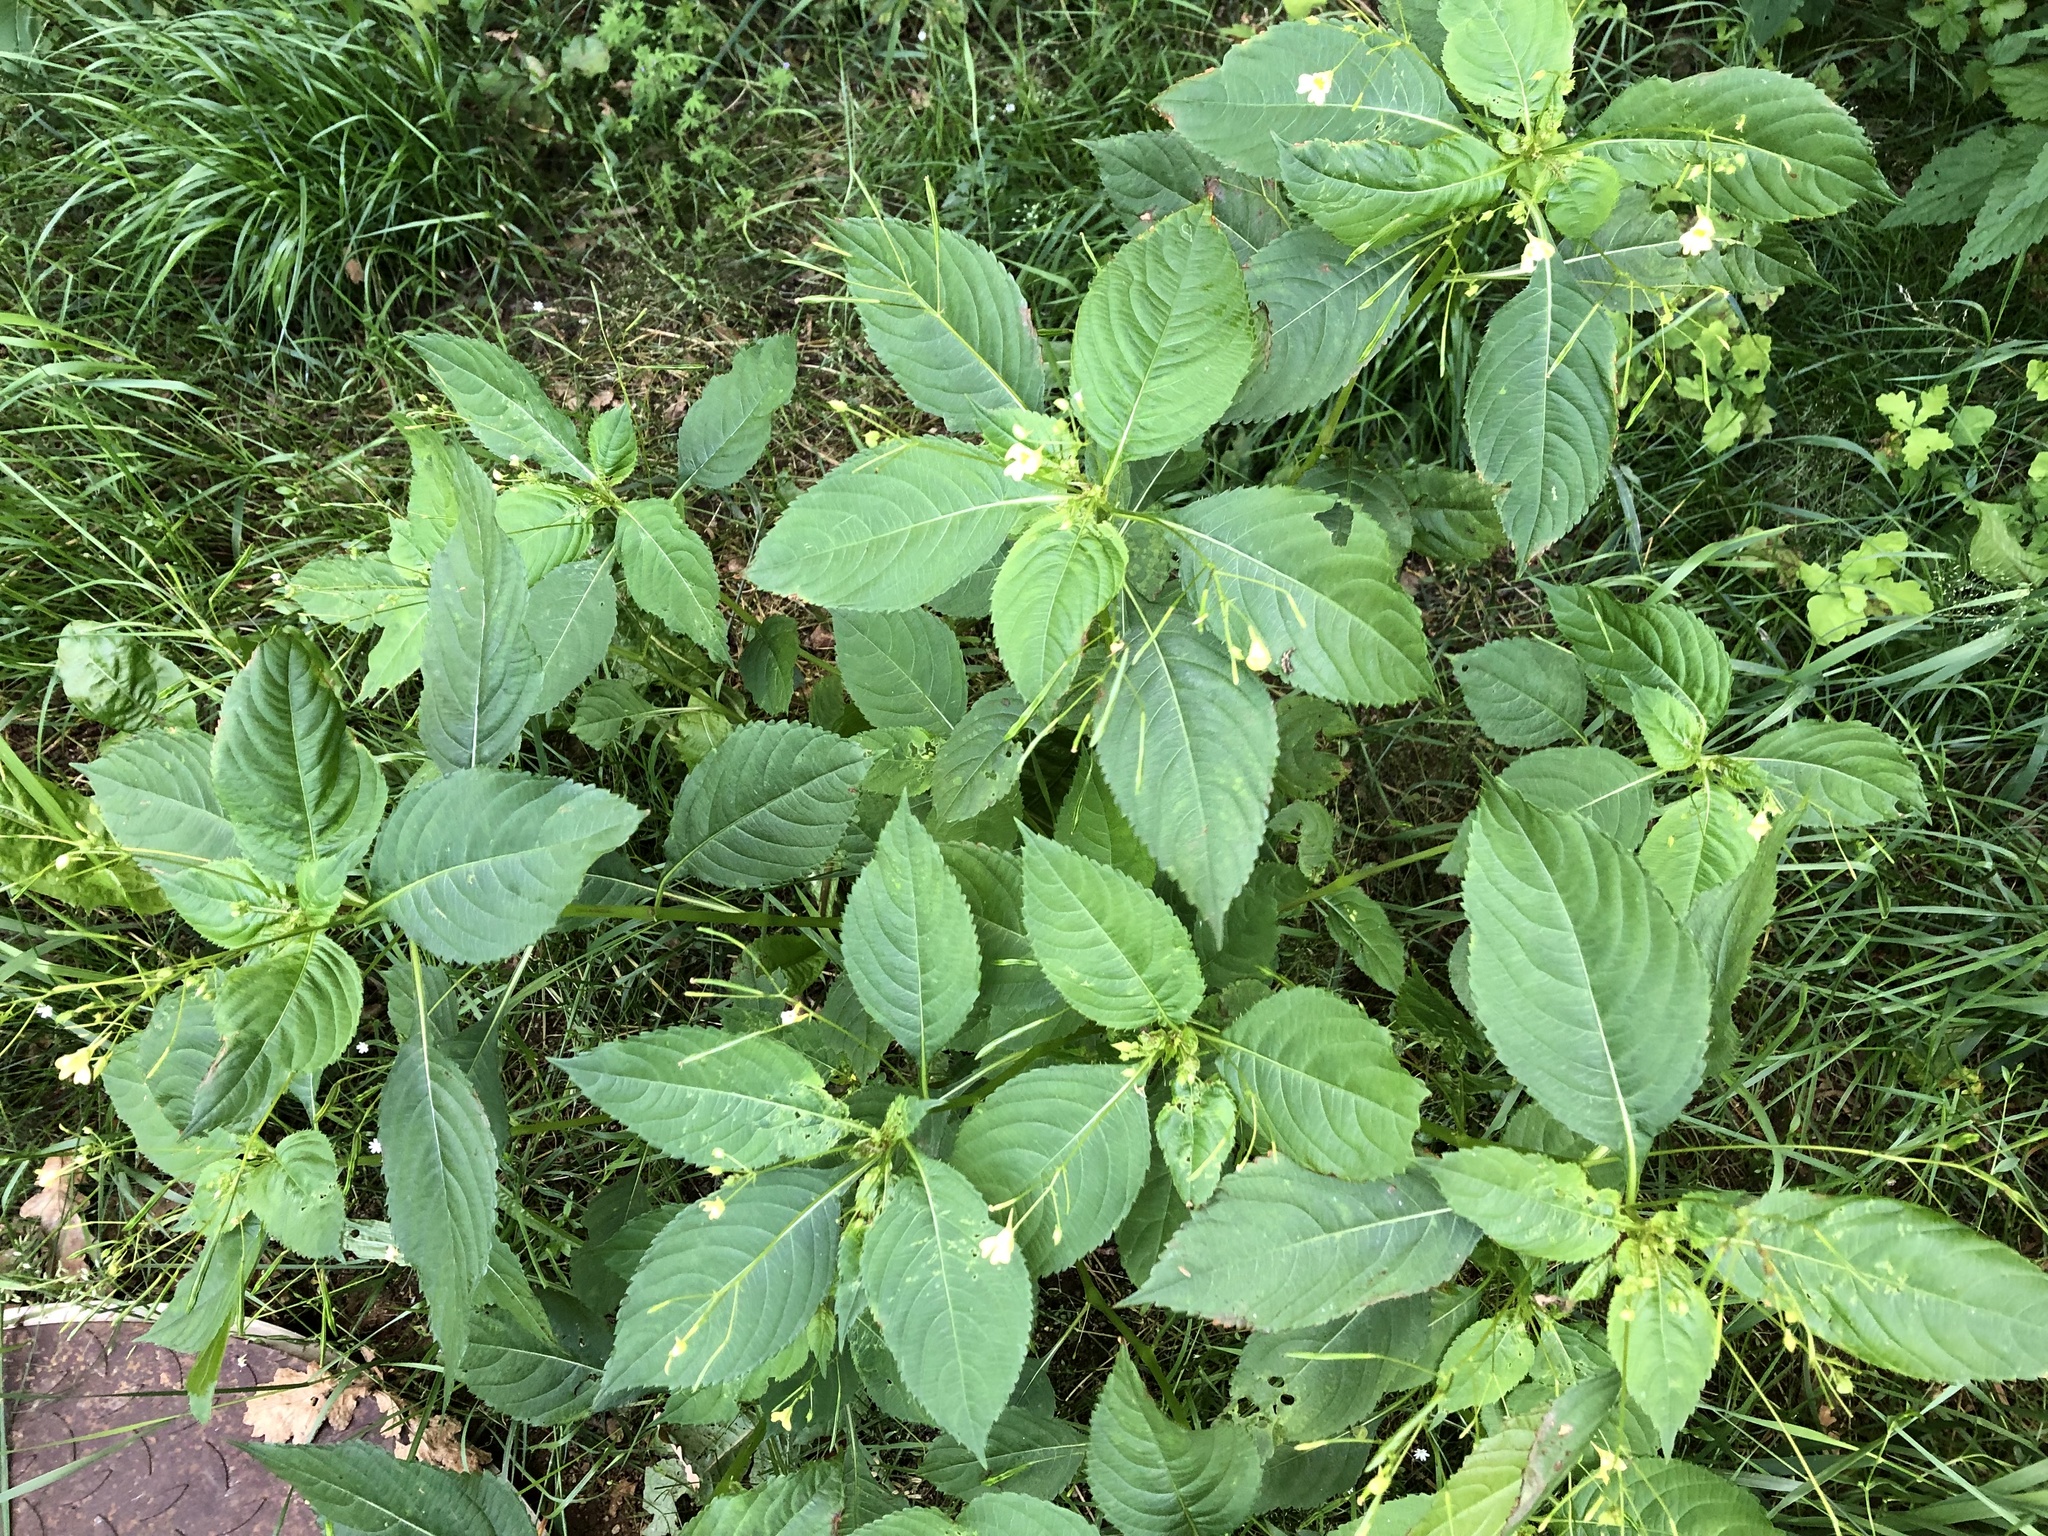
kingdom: Plantae
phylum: Tracheophyta
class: Magnoliopsida
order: Ericales
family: Balsaminaceae
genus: Impatiens
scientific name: Impatiens parviflora
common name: Small balsam
